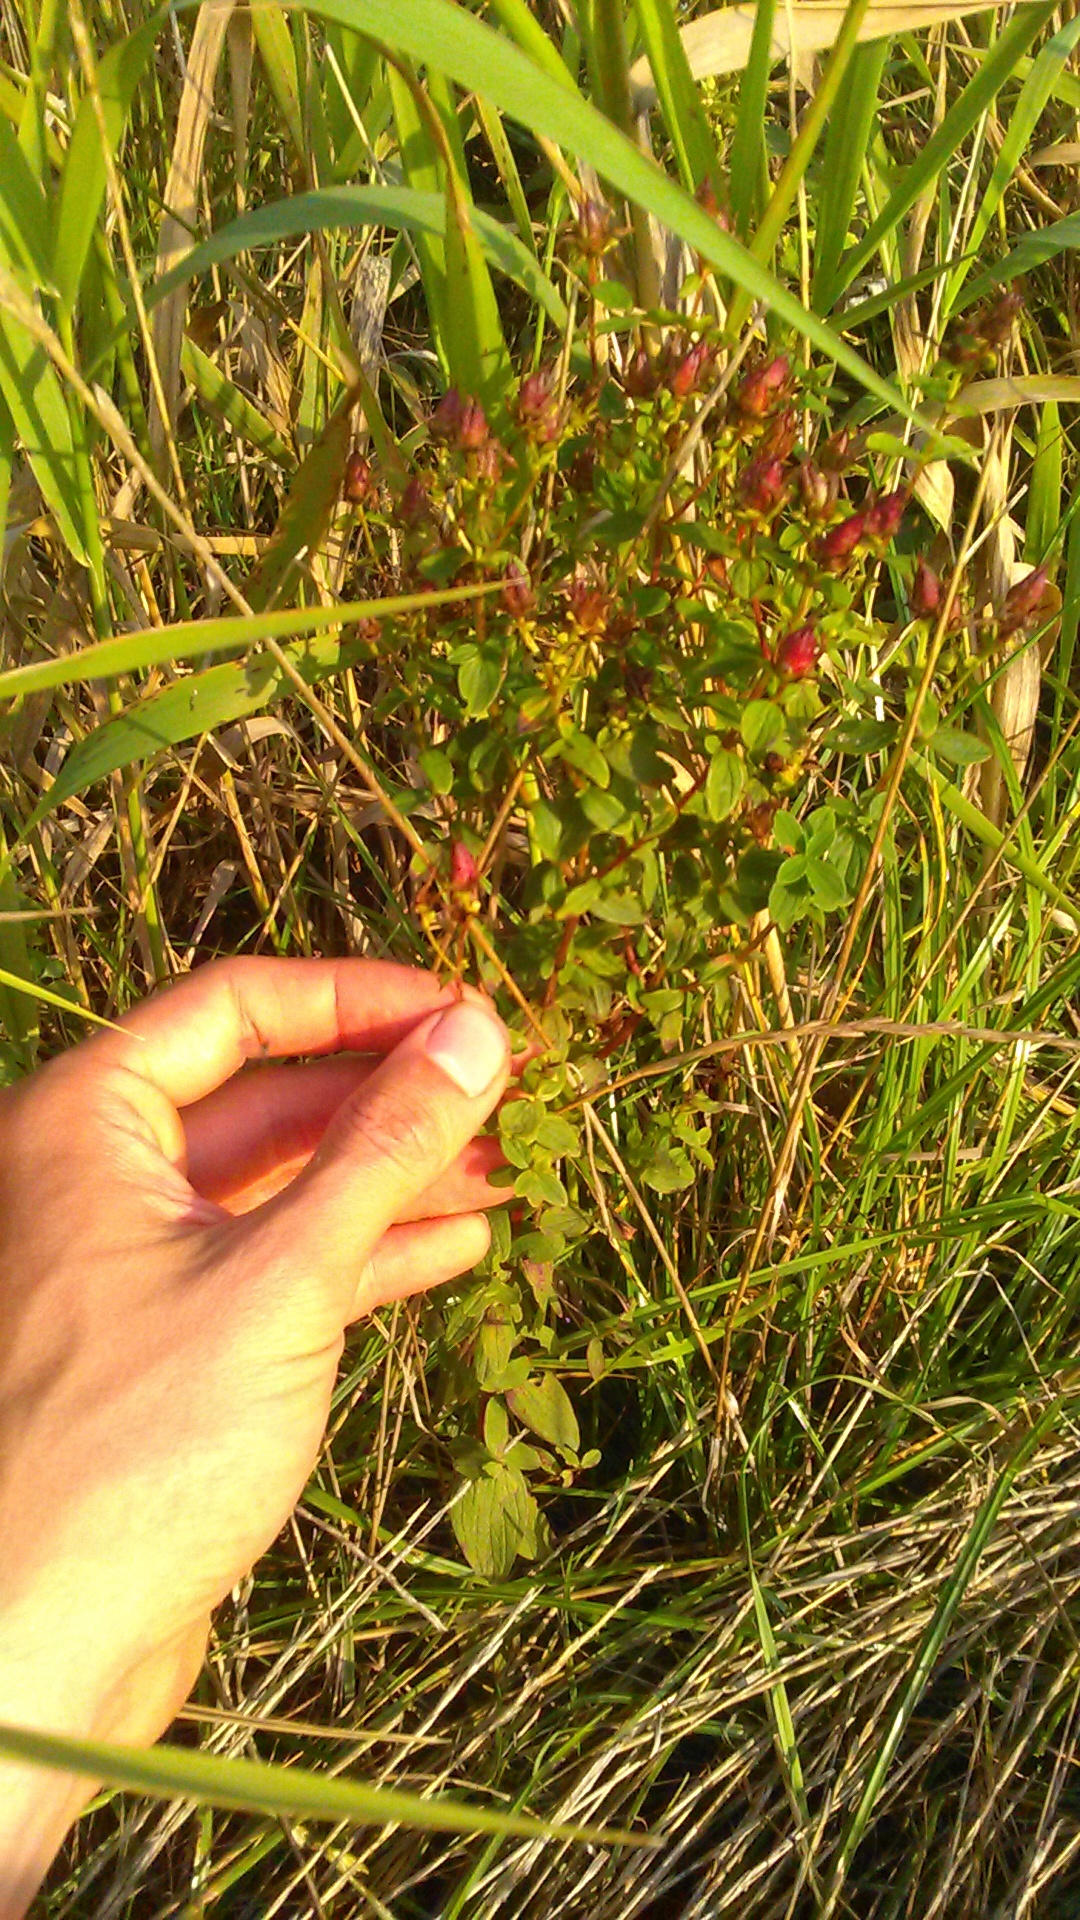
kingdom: Plantae
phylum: Tracheophyta
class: Magnoliopsida
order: Malpighiales
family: Hypericaceae
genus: Hypericum
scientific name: Hypericum maculatum
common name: Imperforate st. john's-wort
